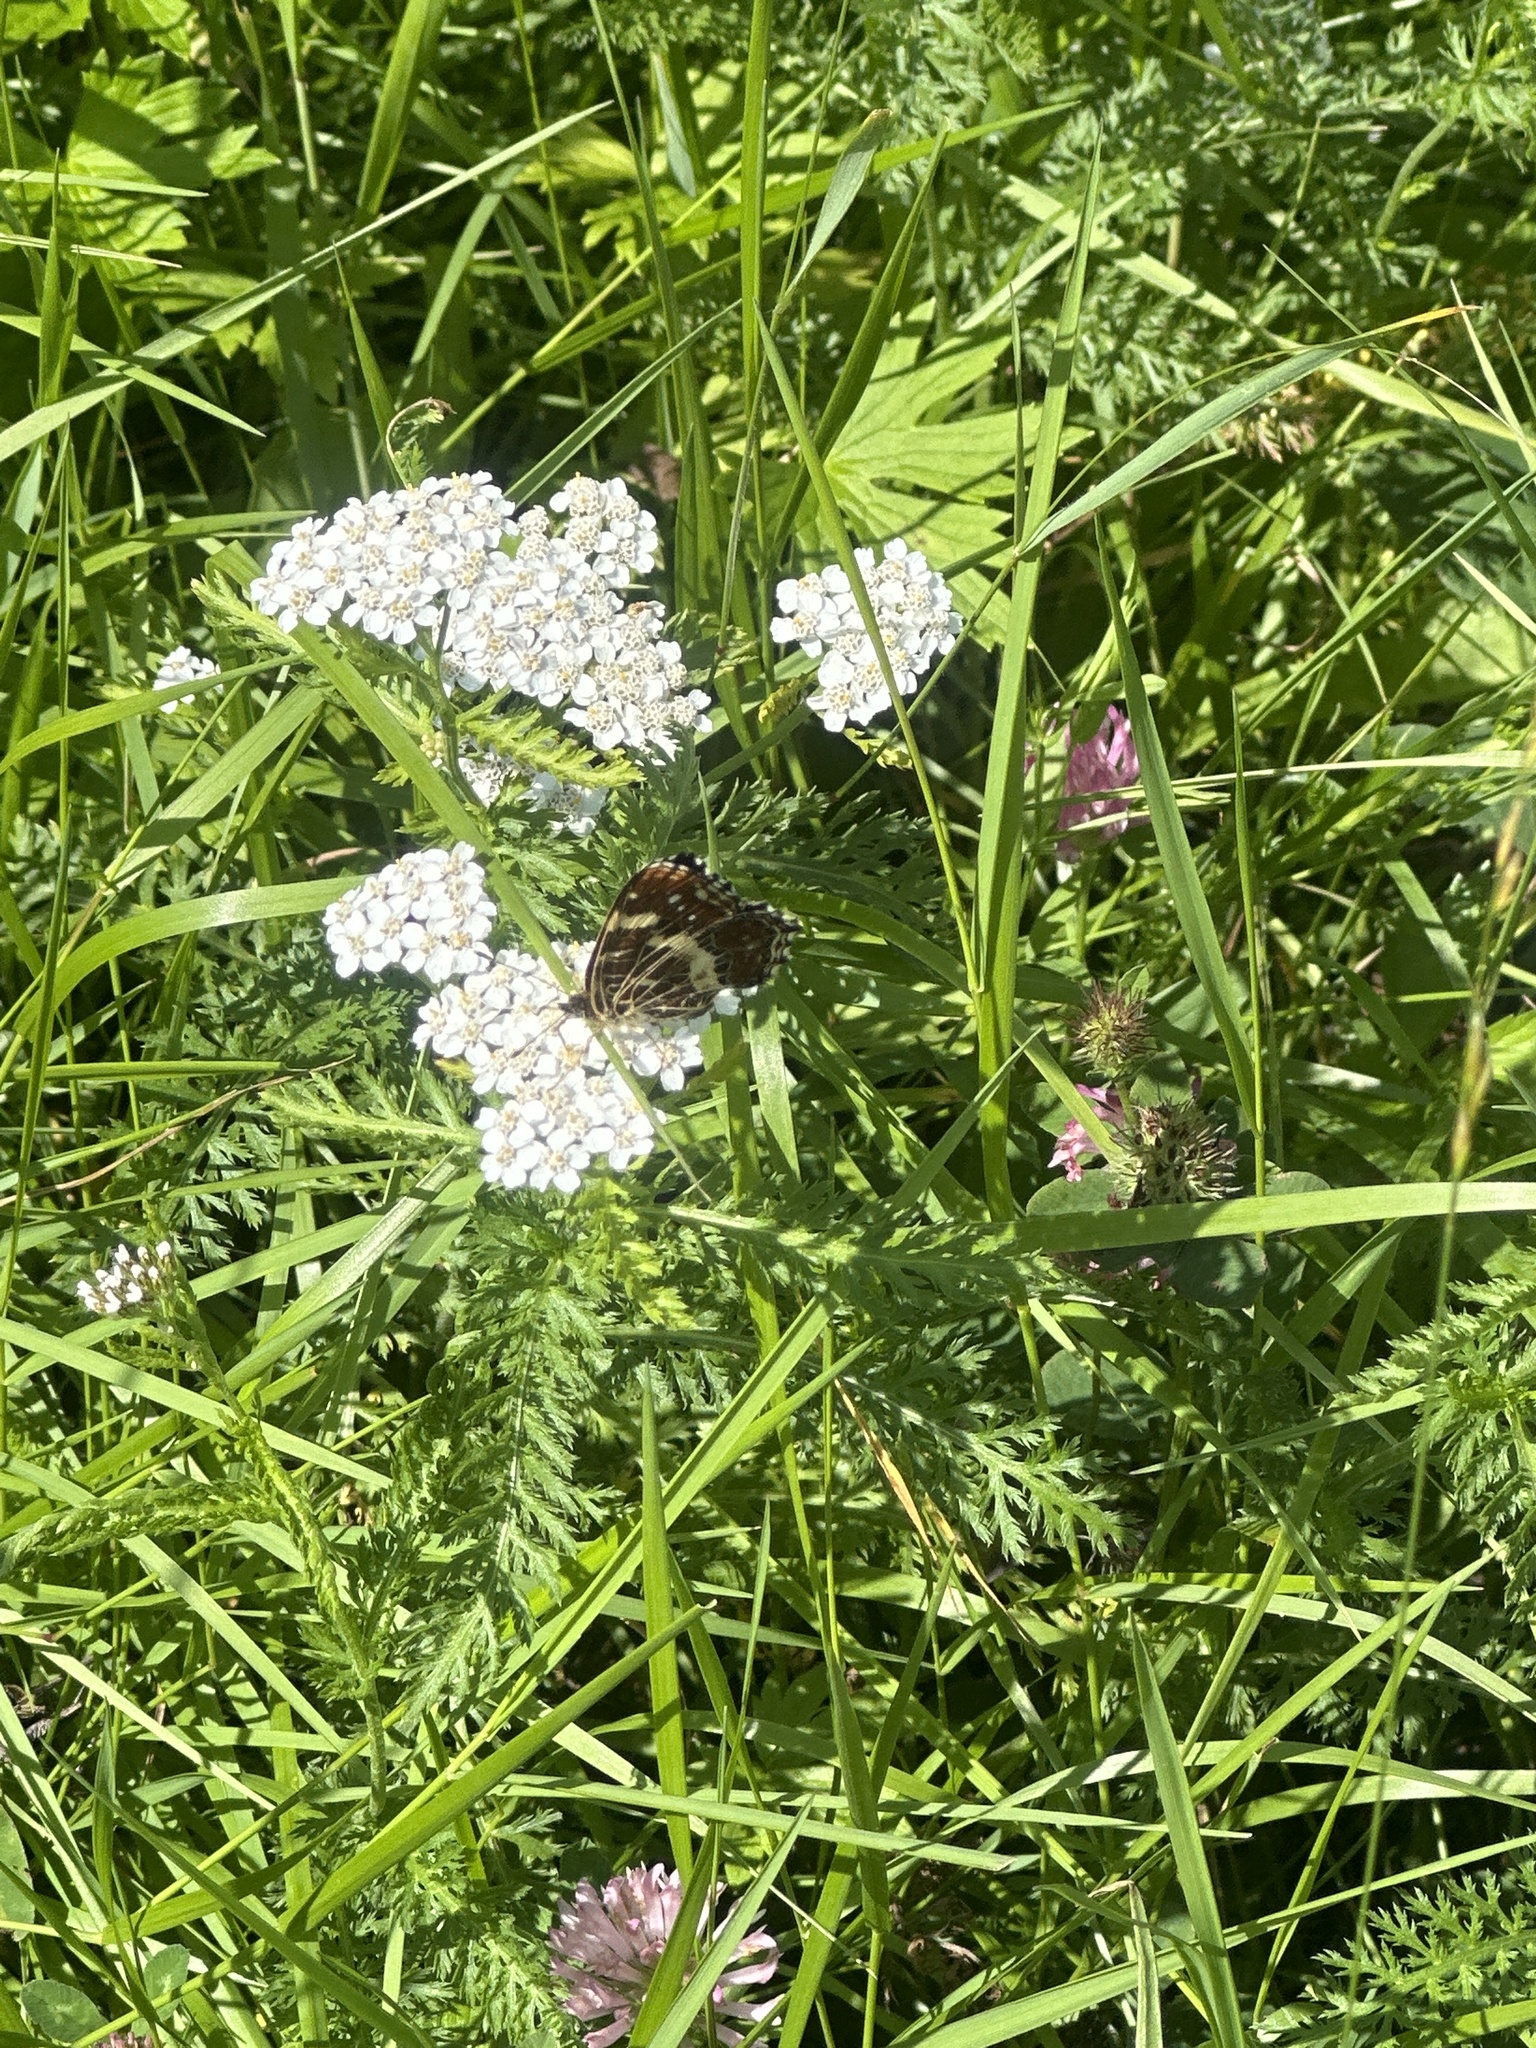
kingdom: Animalia
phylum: Arthropoda
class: Insecta
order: Lepidoptera
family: Nymphalidae
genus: Araschnia
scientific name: Araschnia levana
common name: Map butterfly
